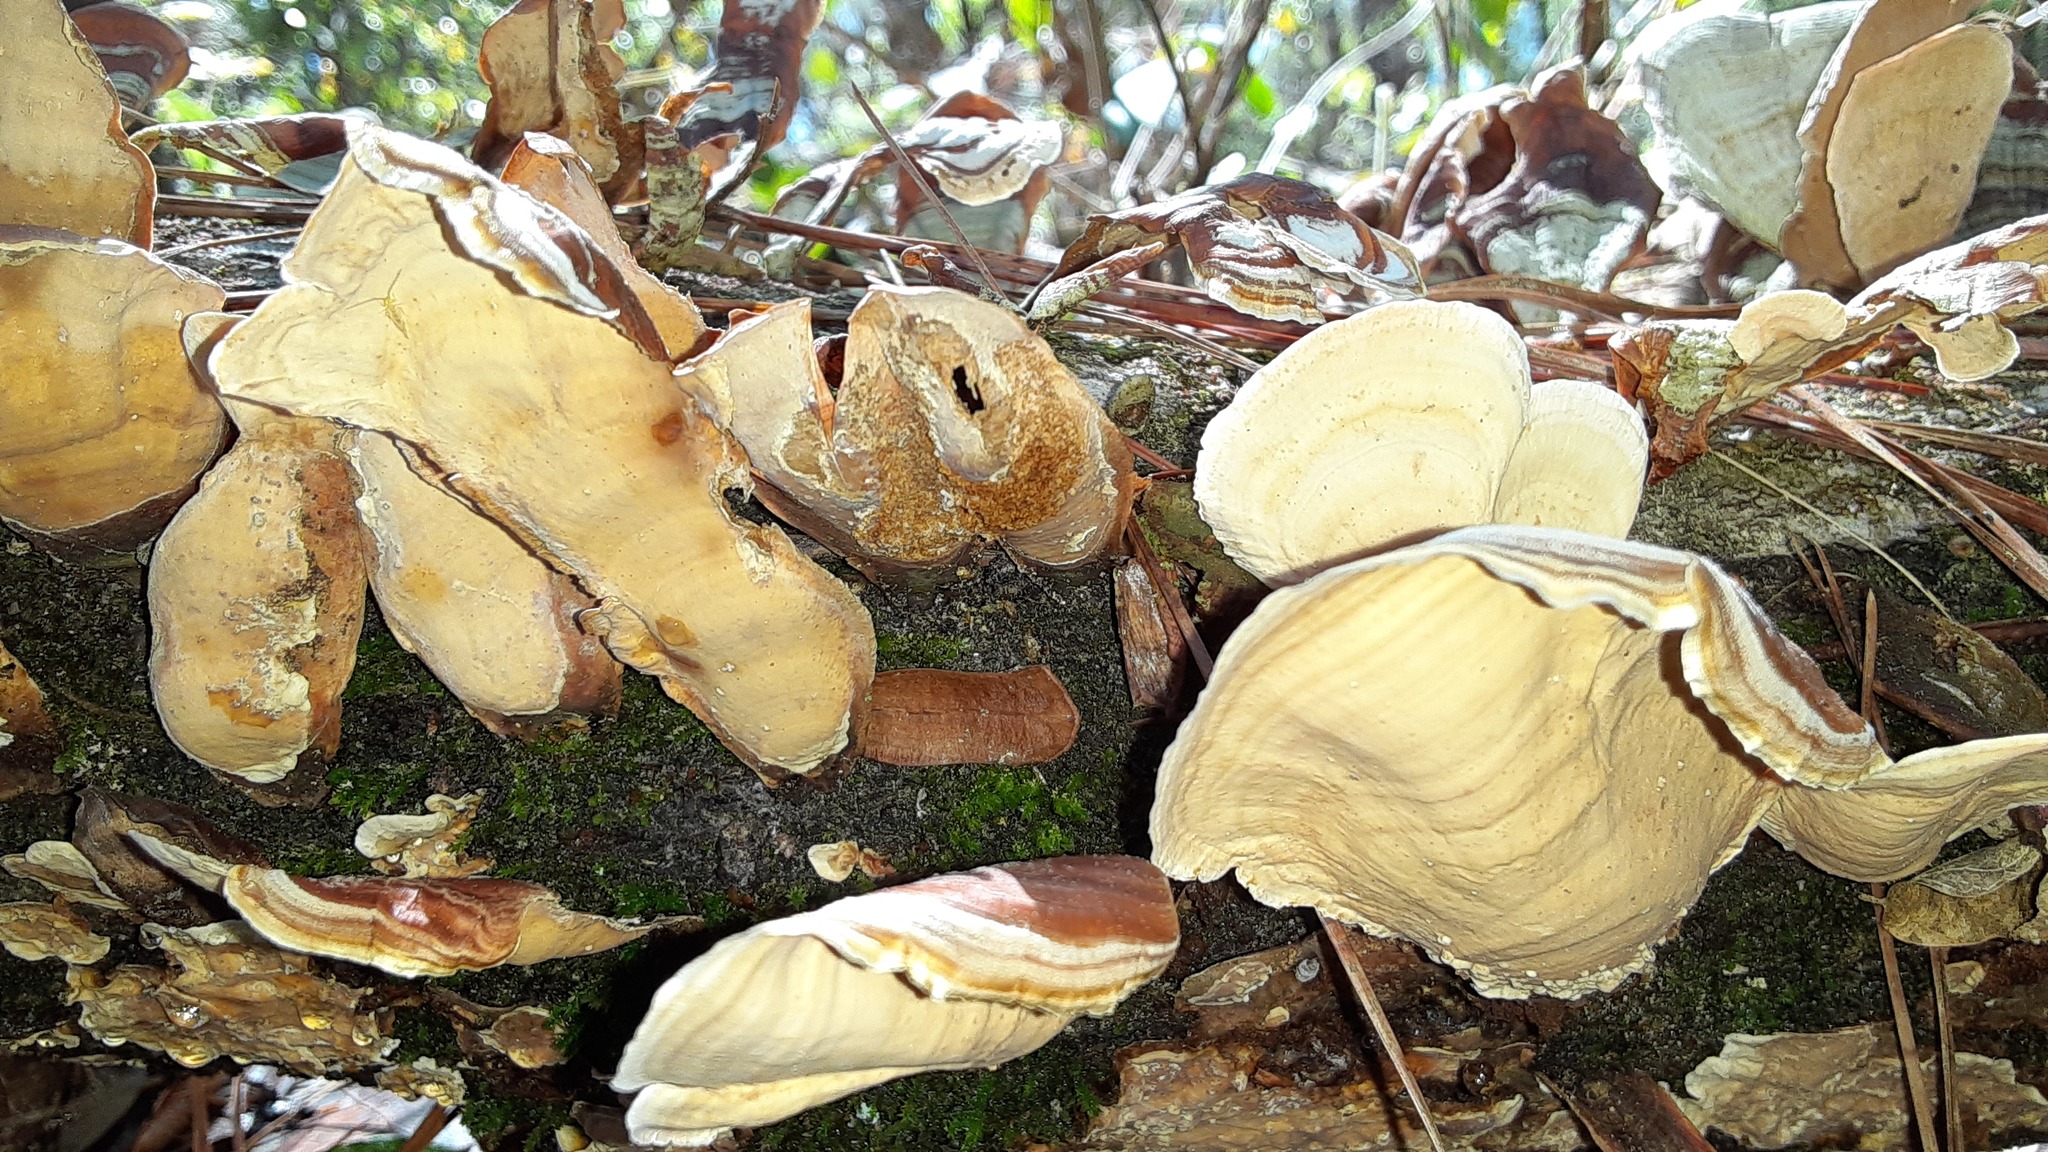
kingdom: Fungi
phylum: Basidiomycota
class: Agaricomycetes
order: Russulales
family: Stereaceae
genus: Stereum
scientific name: Stereum lobatum
